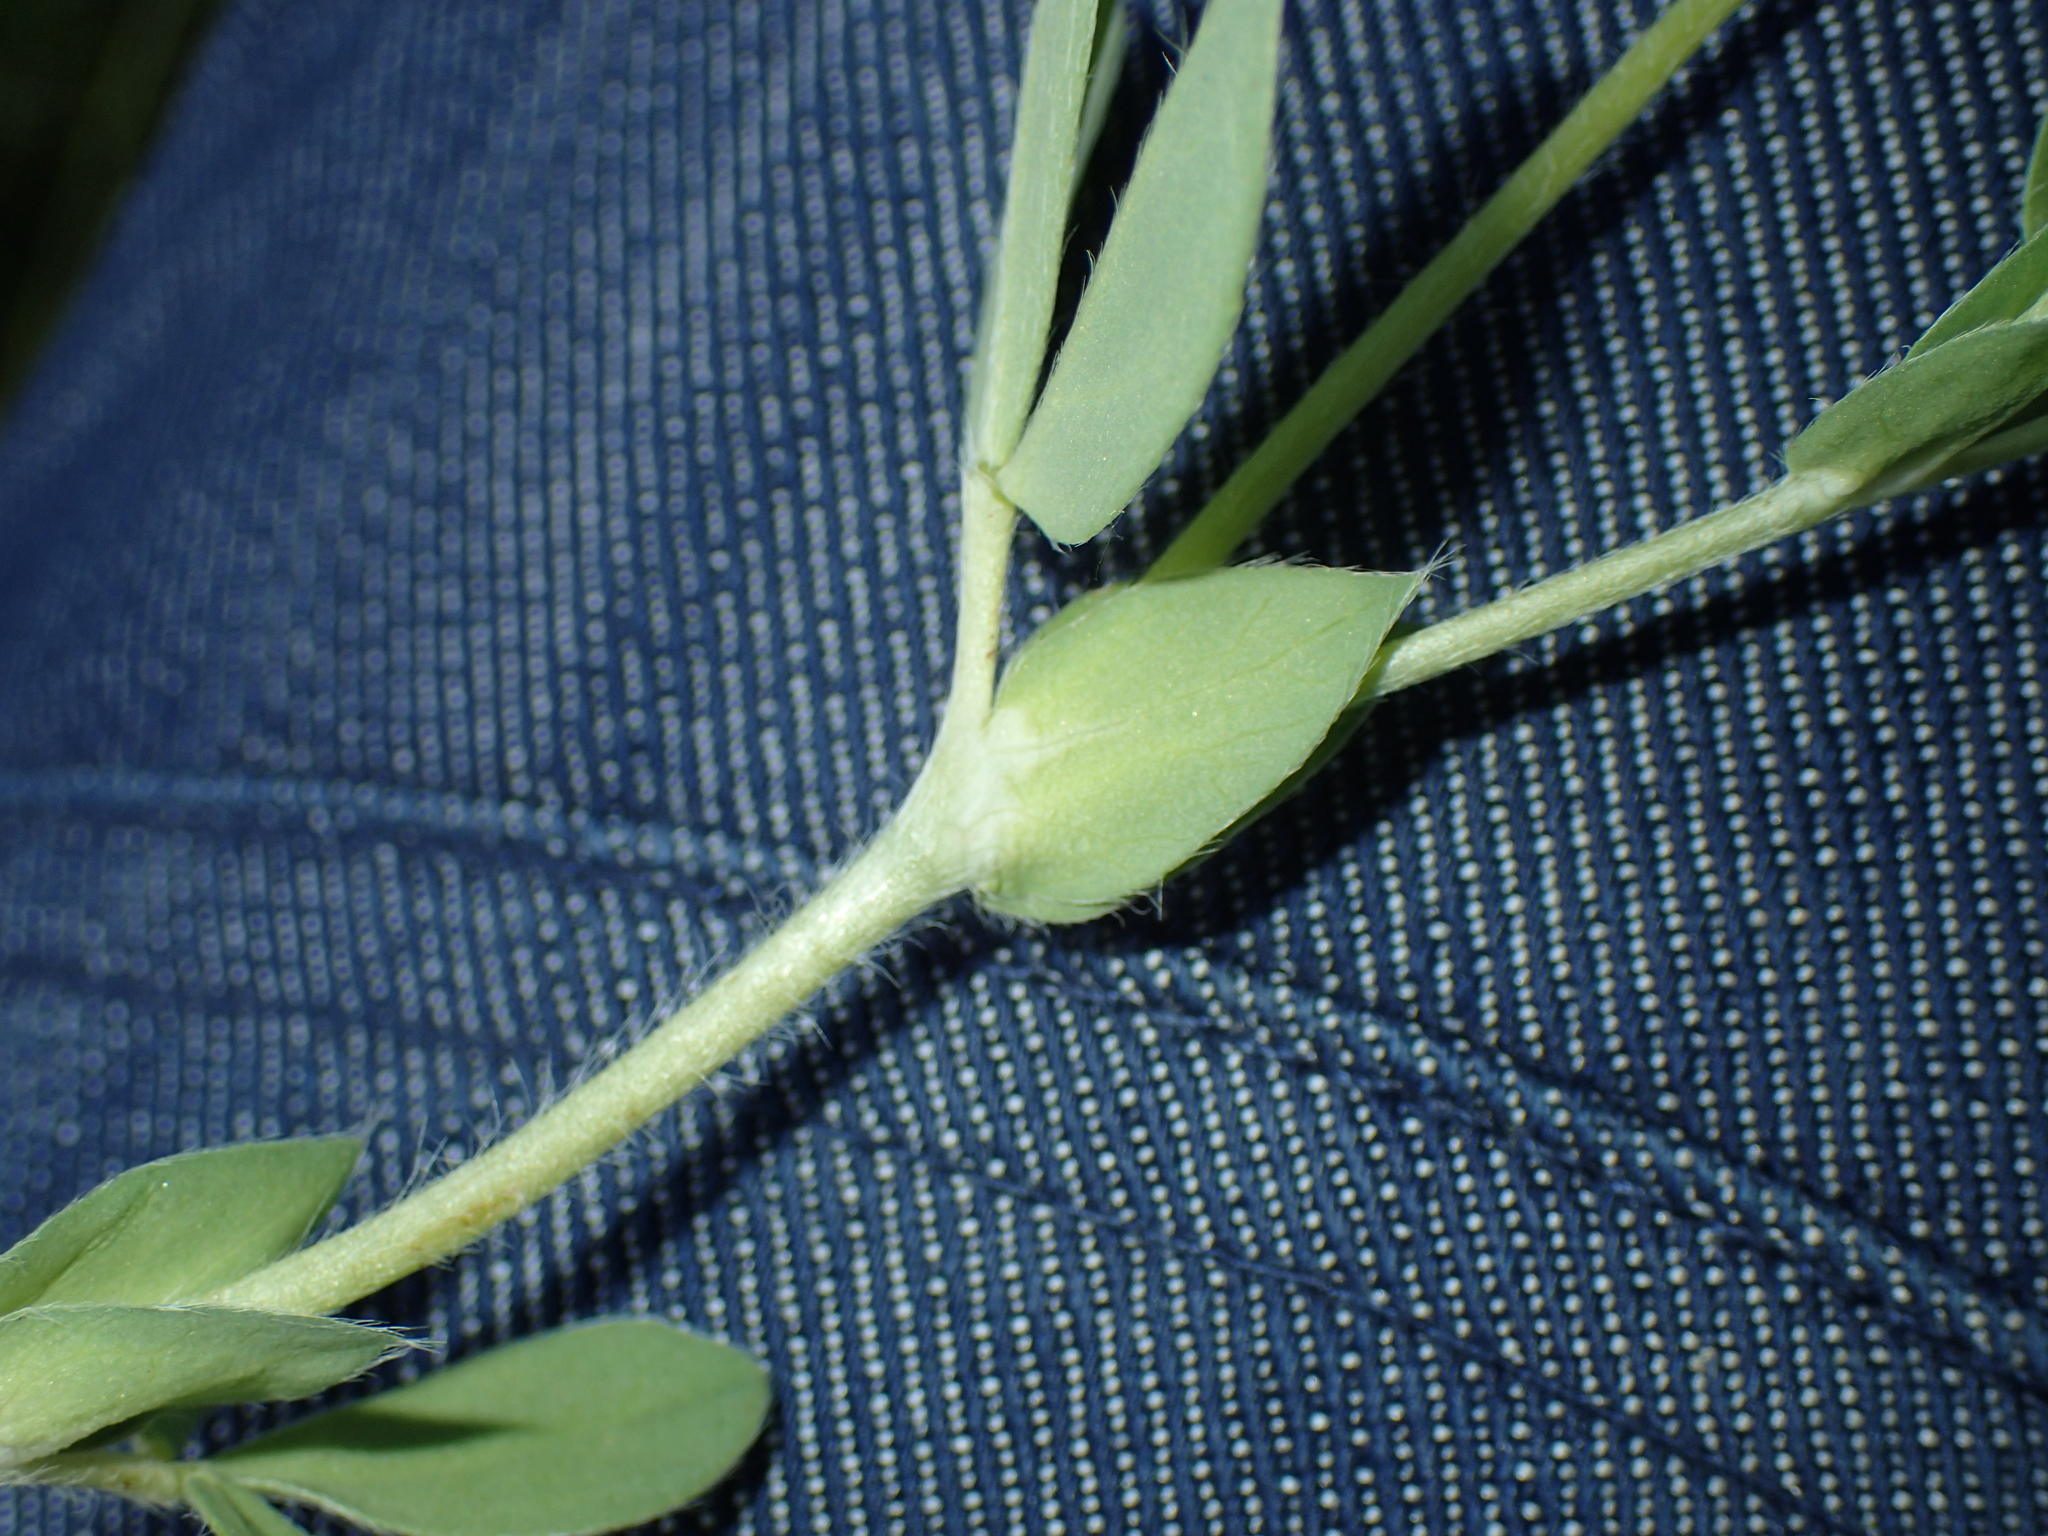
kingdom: Plantae
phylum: Tracheophyta
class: Magnoliopsida
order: Fabales
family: Fabaceae
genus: Lotus
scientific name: Lotus maritimus
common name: Dragon's-teeth
